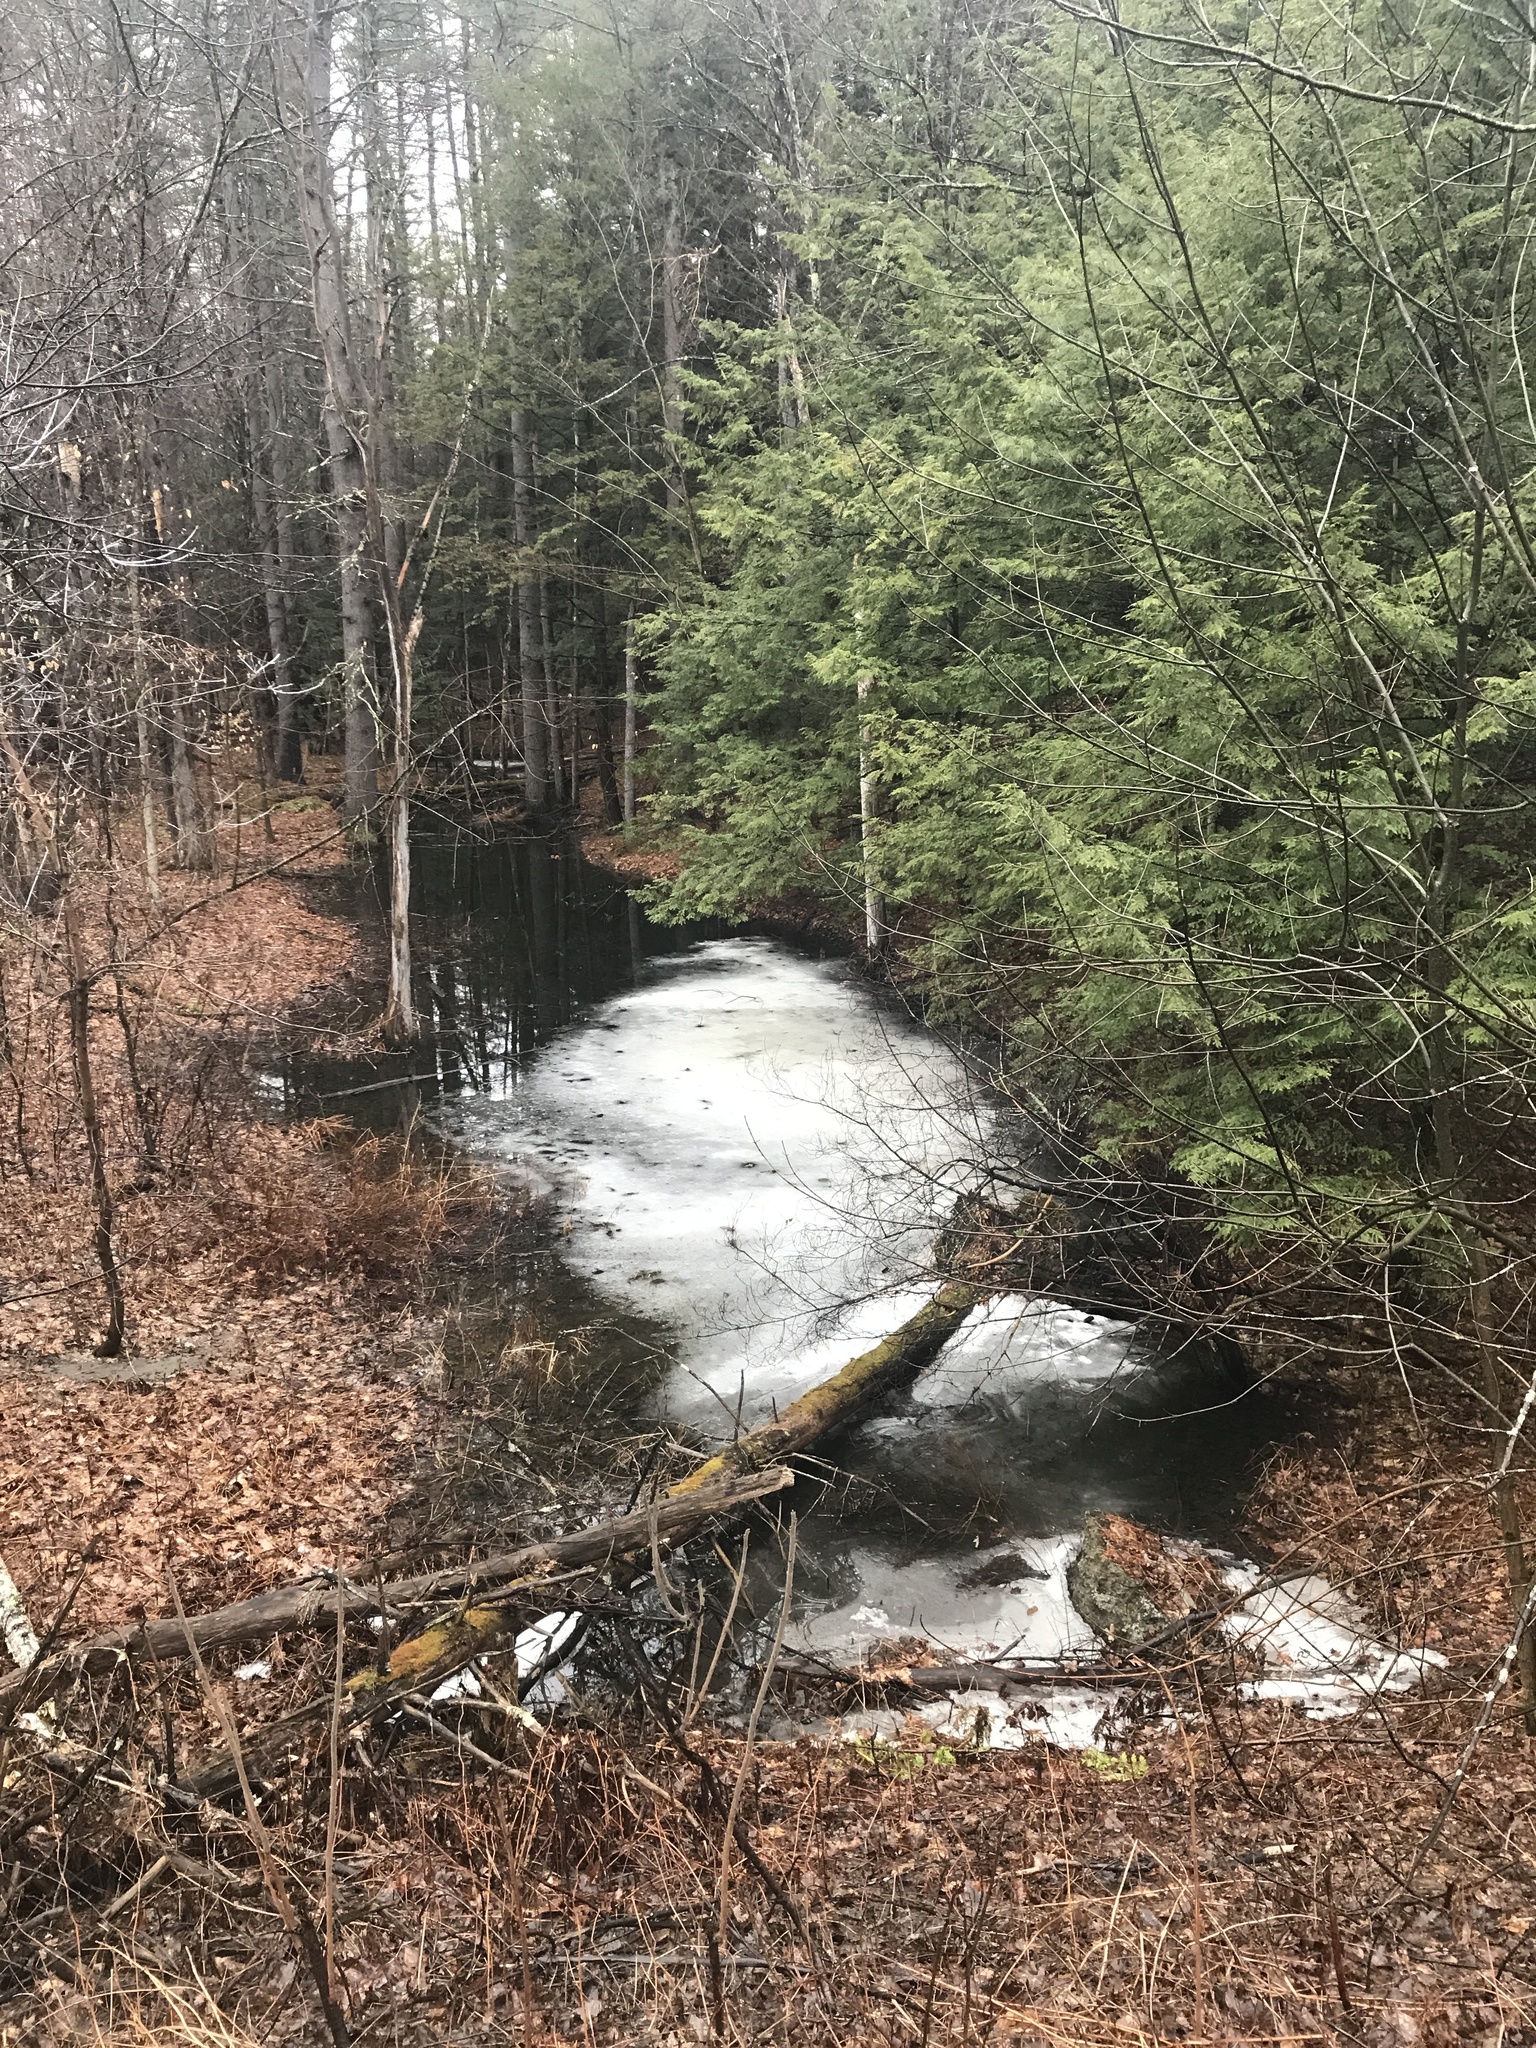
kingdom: Plantae
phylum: Tracheophyta
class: Pinopsida
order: Pinales
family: Pinaceae
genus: Tsuga
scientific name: Tsuga canadensis
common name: Eastern hemlock
